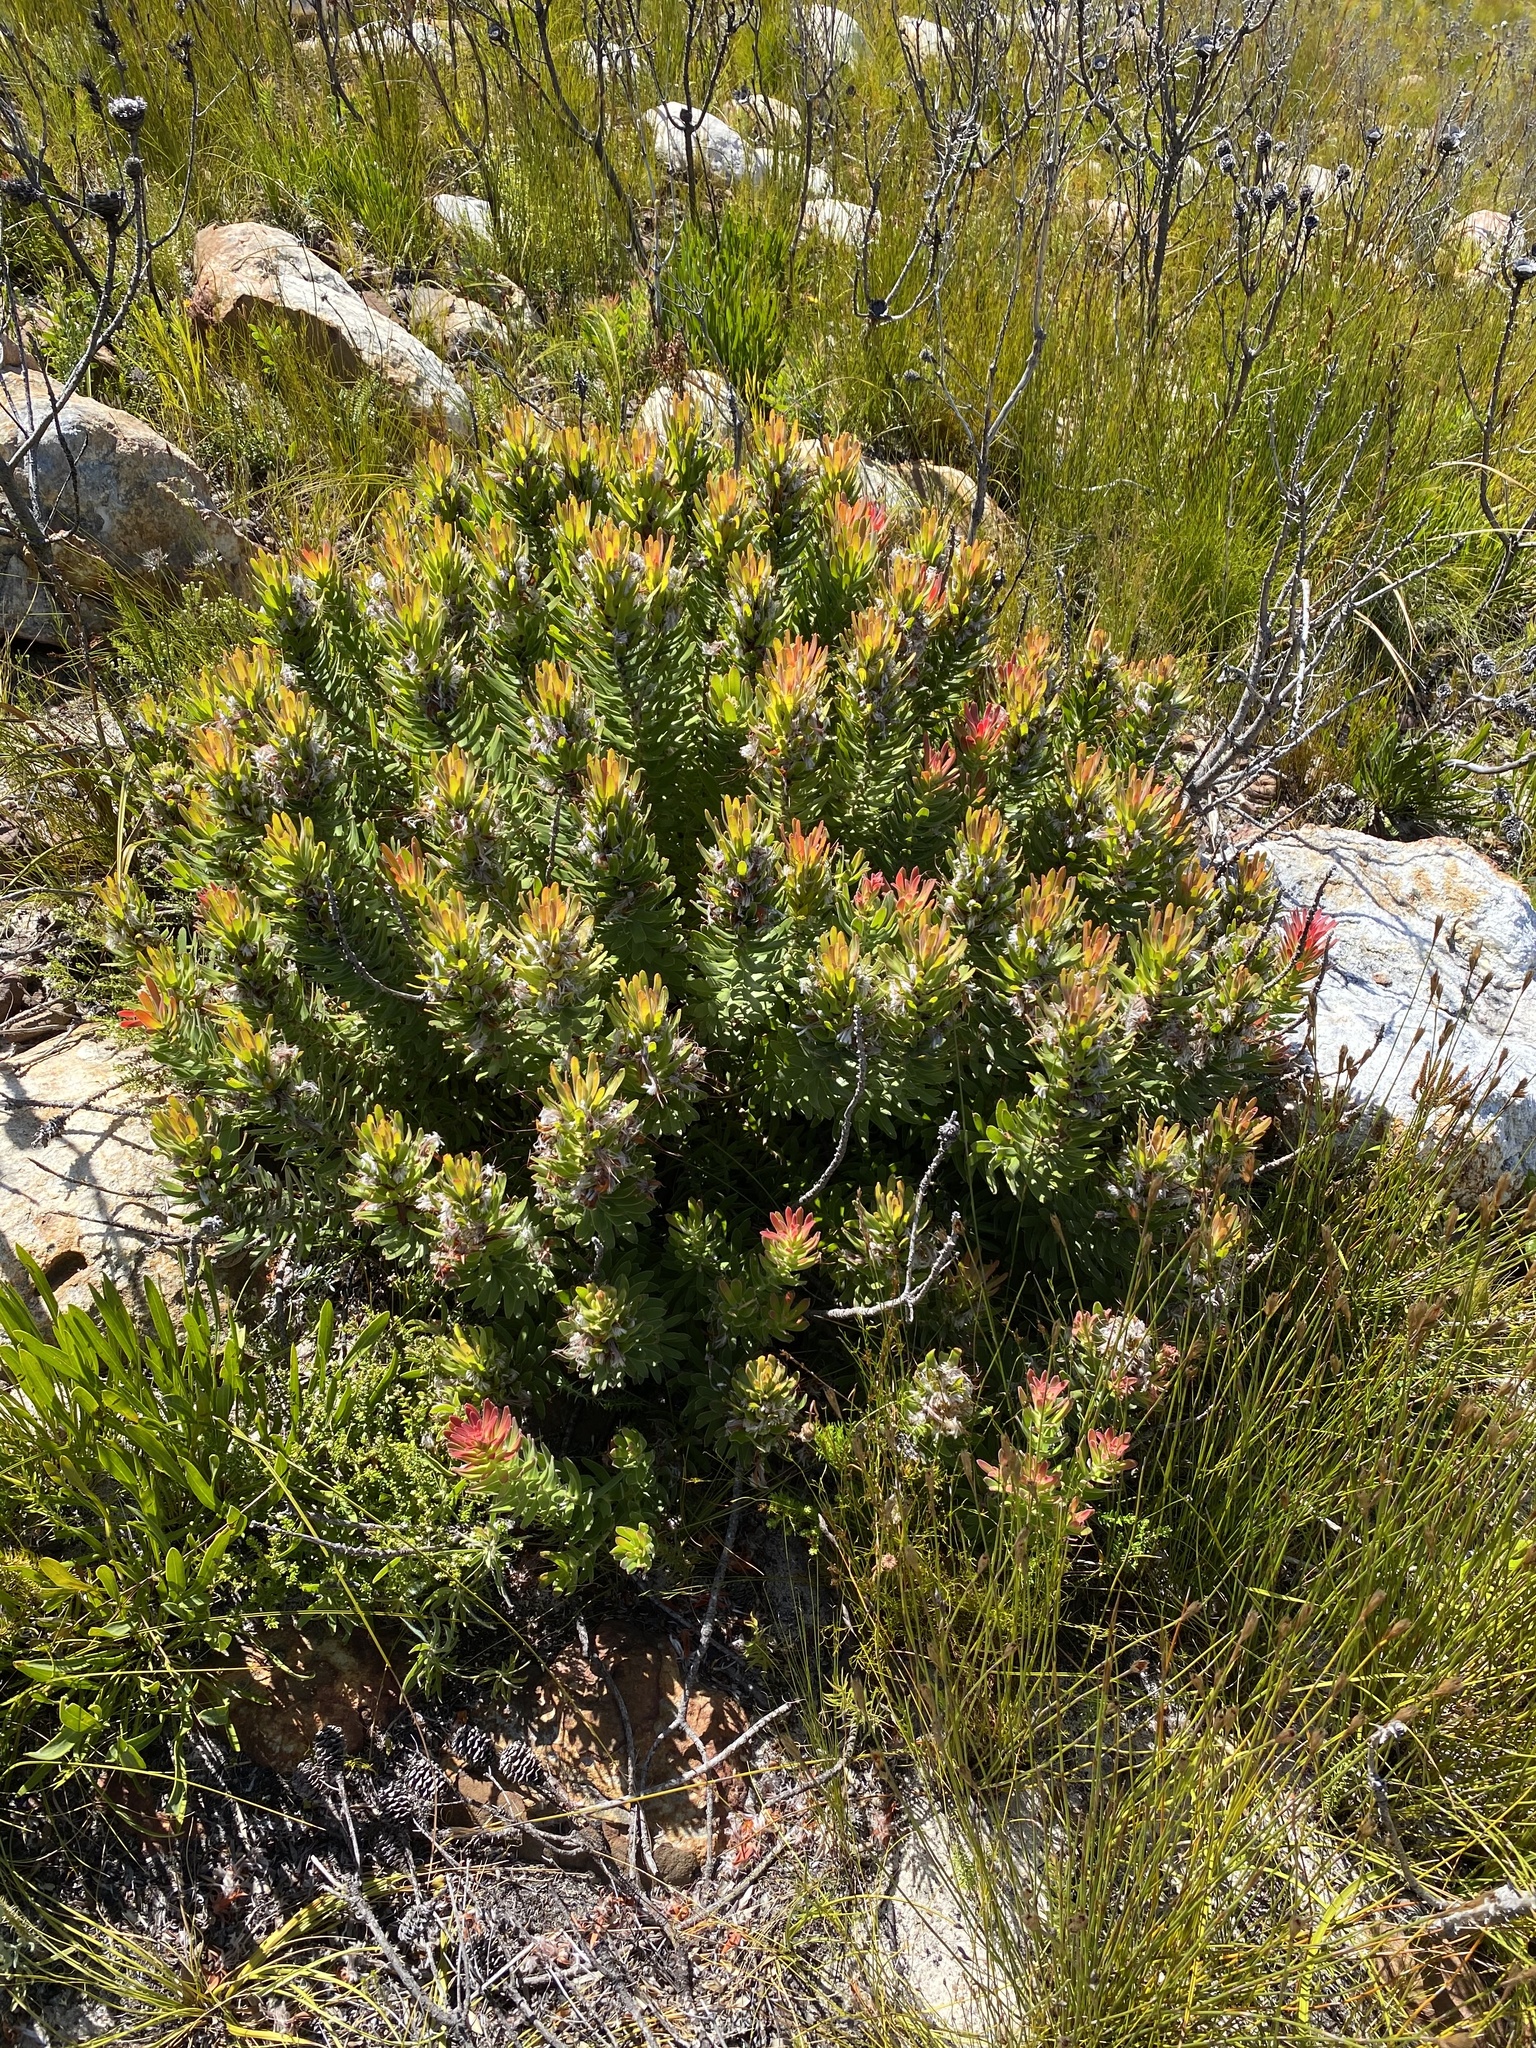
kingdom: Plantae
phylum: Tracheophyta
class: Magnoliopsida
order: Proteales
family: Proteaceae
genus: Mimetes
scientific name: Mimetes cucullatus
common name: Common pagoda
